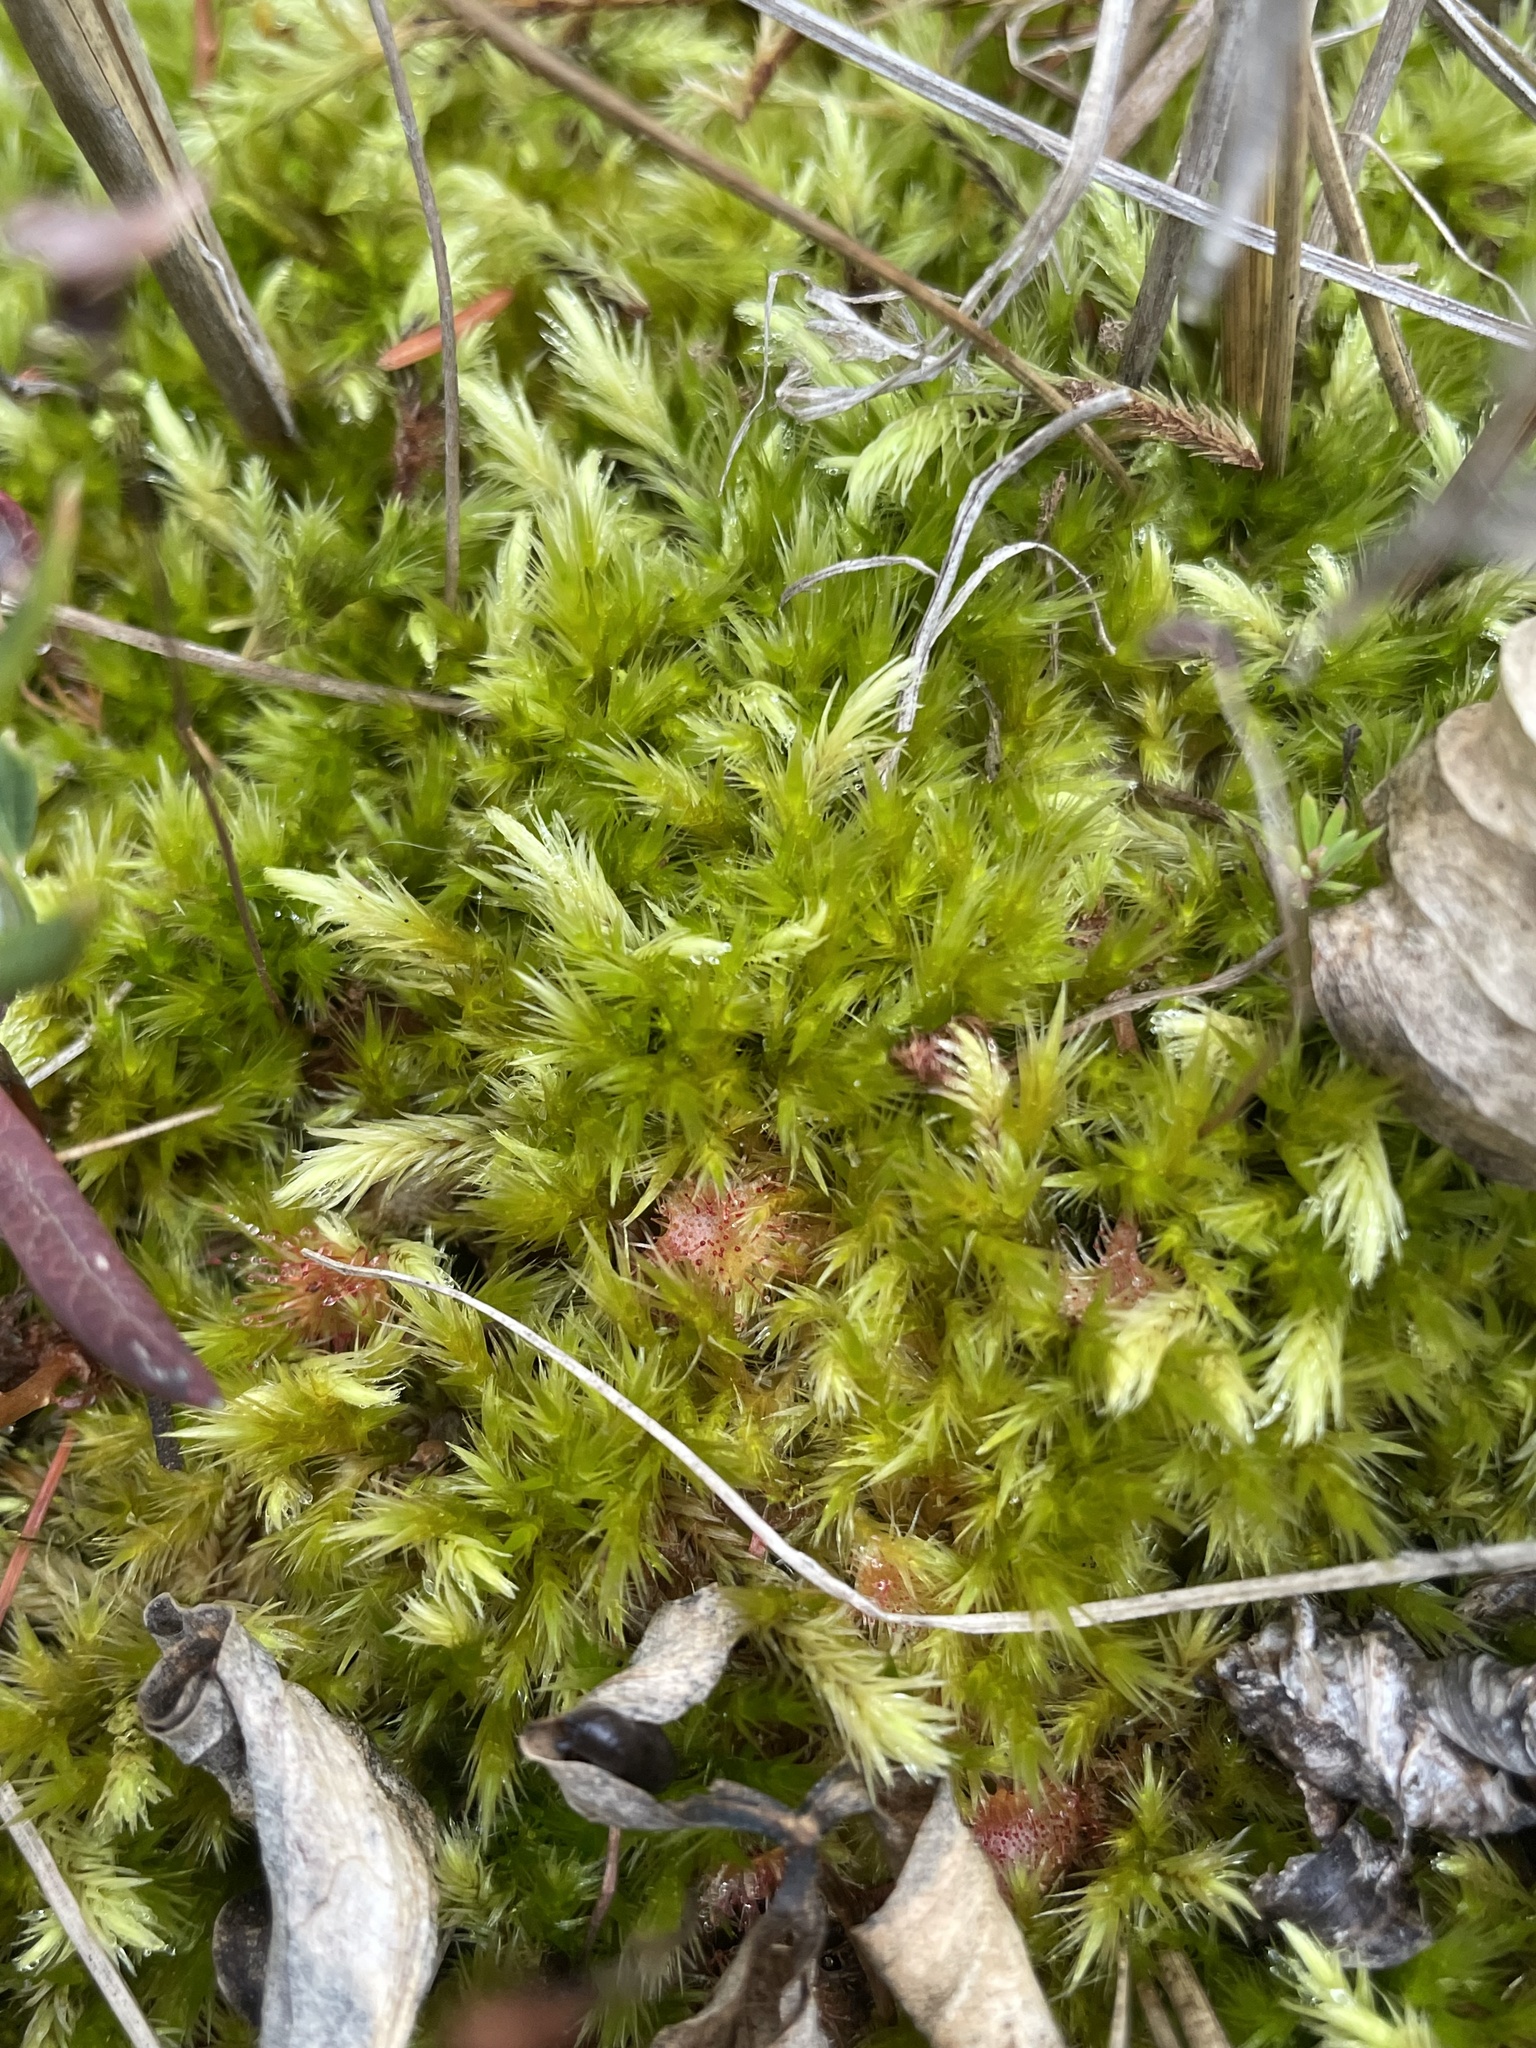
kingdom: Plantae
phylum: Tracheophyta
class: Magnoliopsida
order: Caryophyllales
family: Droseraceae
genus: Drosera
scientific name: Drosera rotundifolia
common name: Round-leaved sundew
